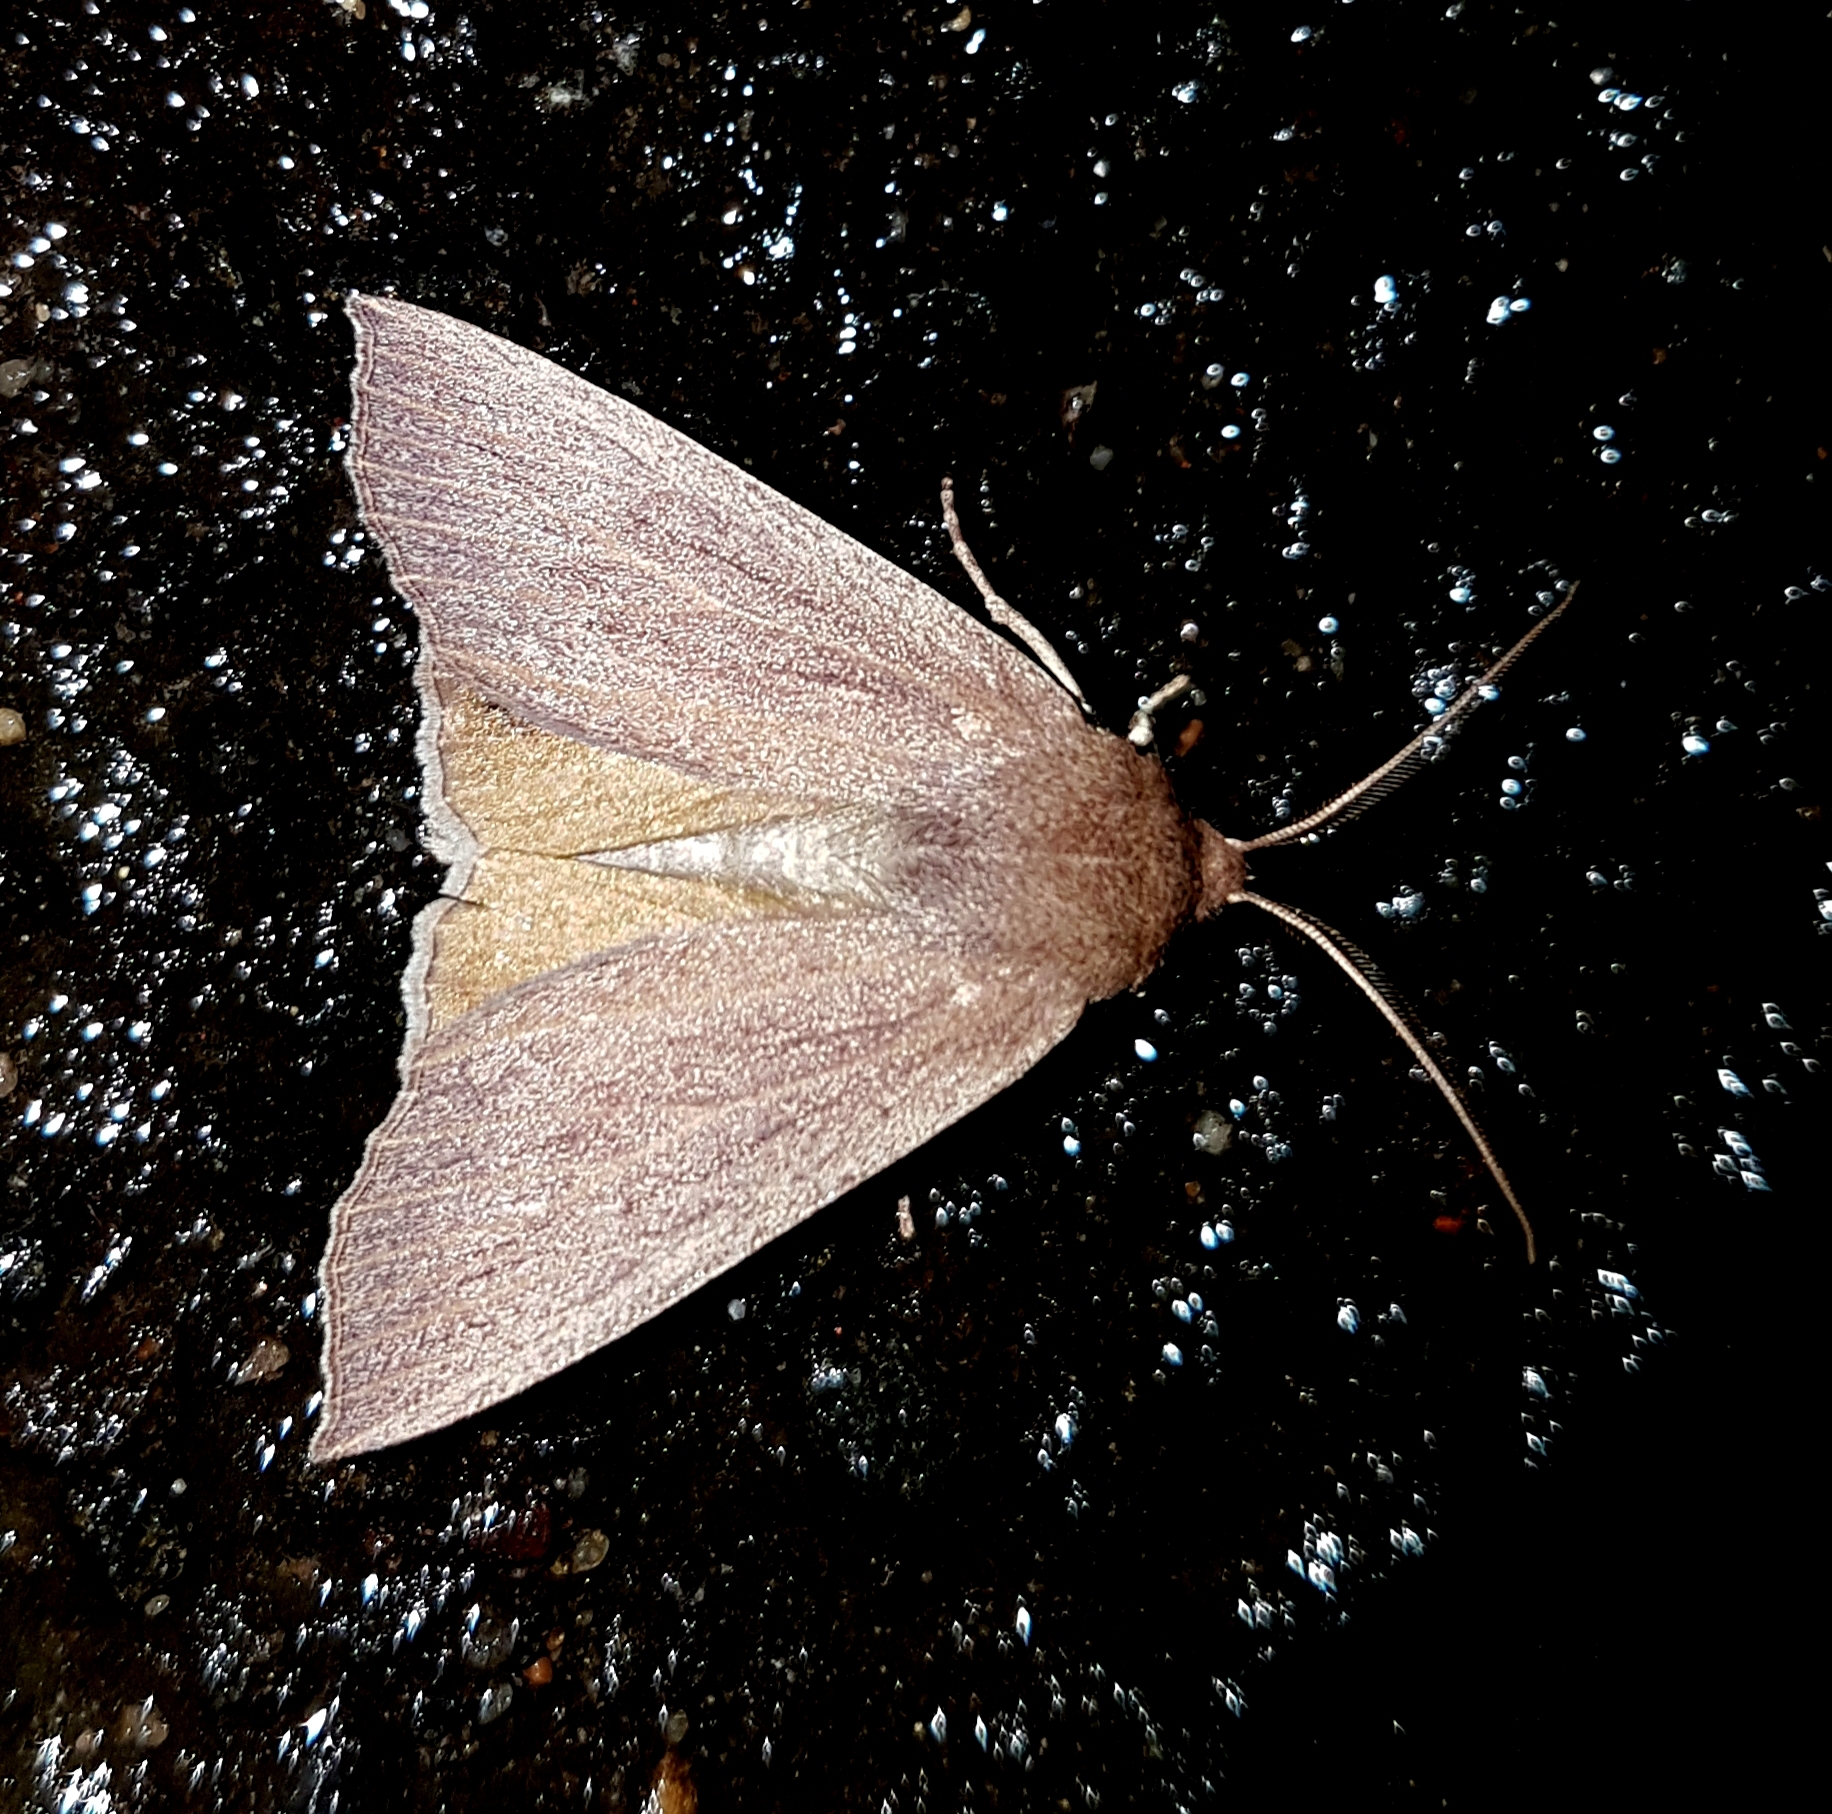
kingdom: Animalia
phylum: Arthropoda
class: Insecta
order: Lepidoptera
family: Geometridae
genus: Palleopa
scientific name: Palleopa innotata
